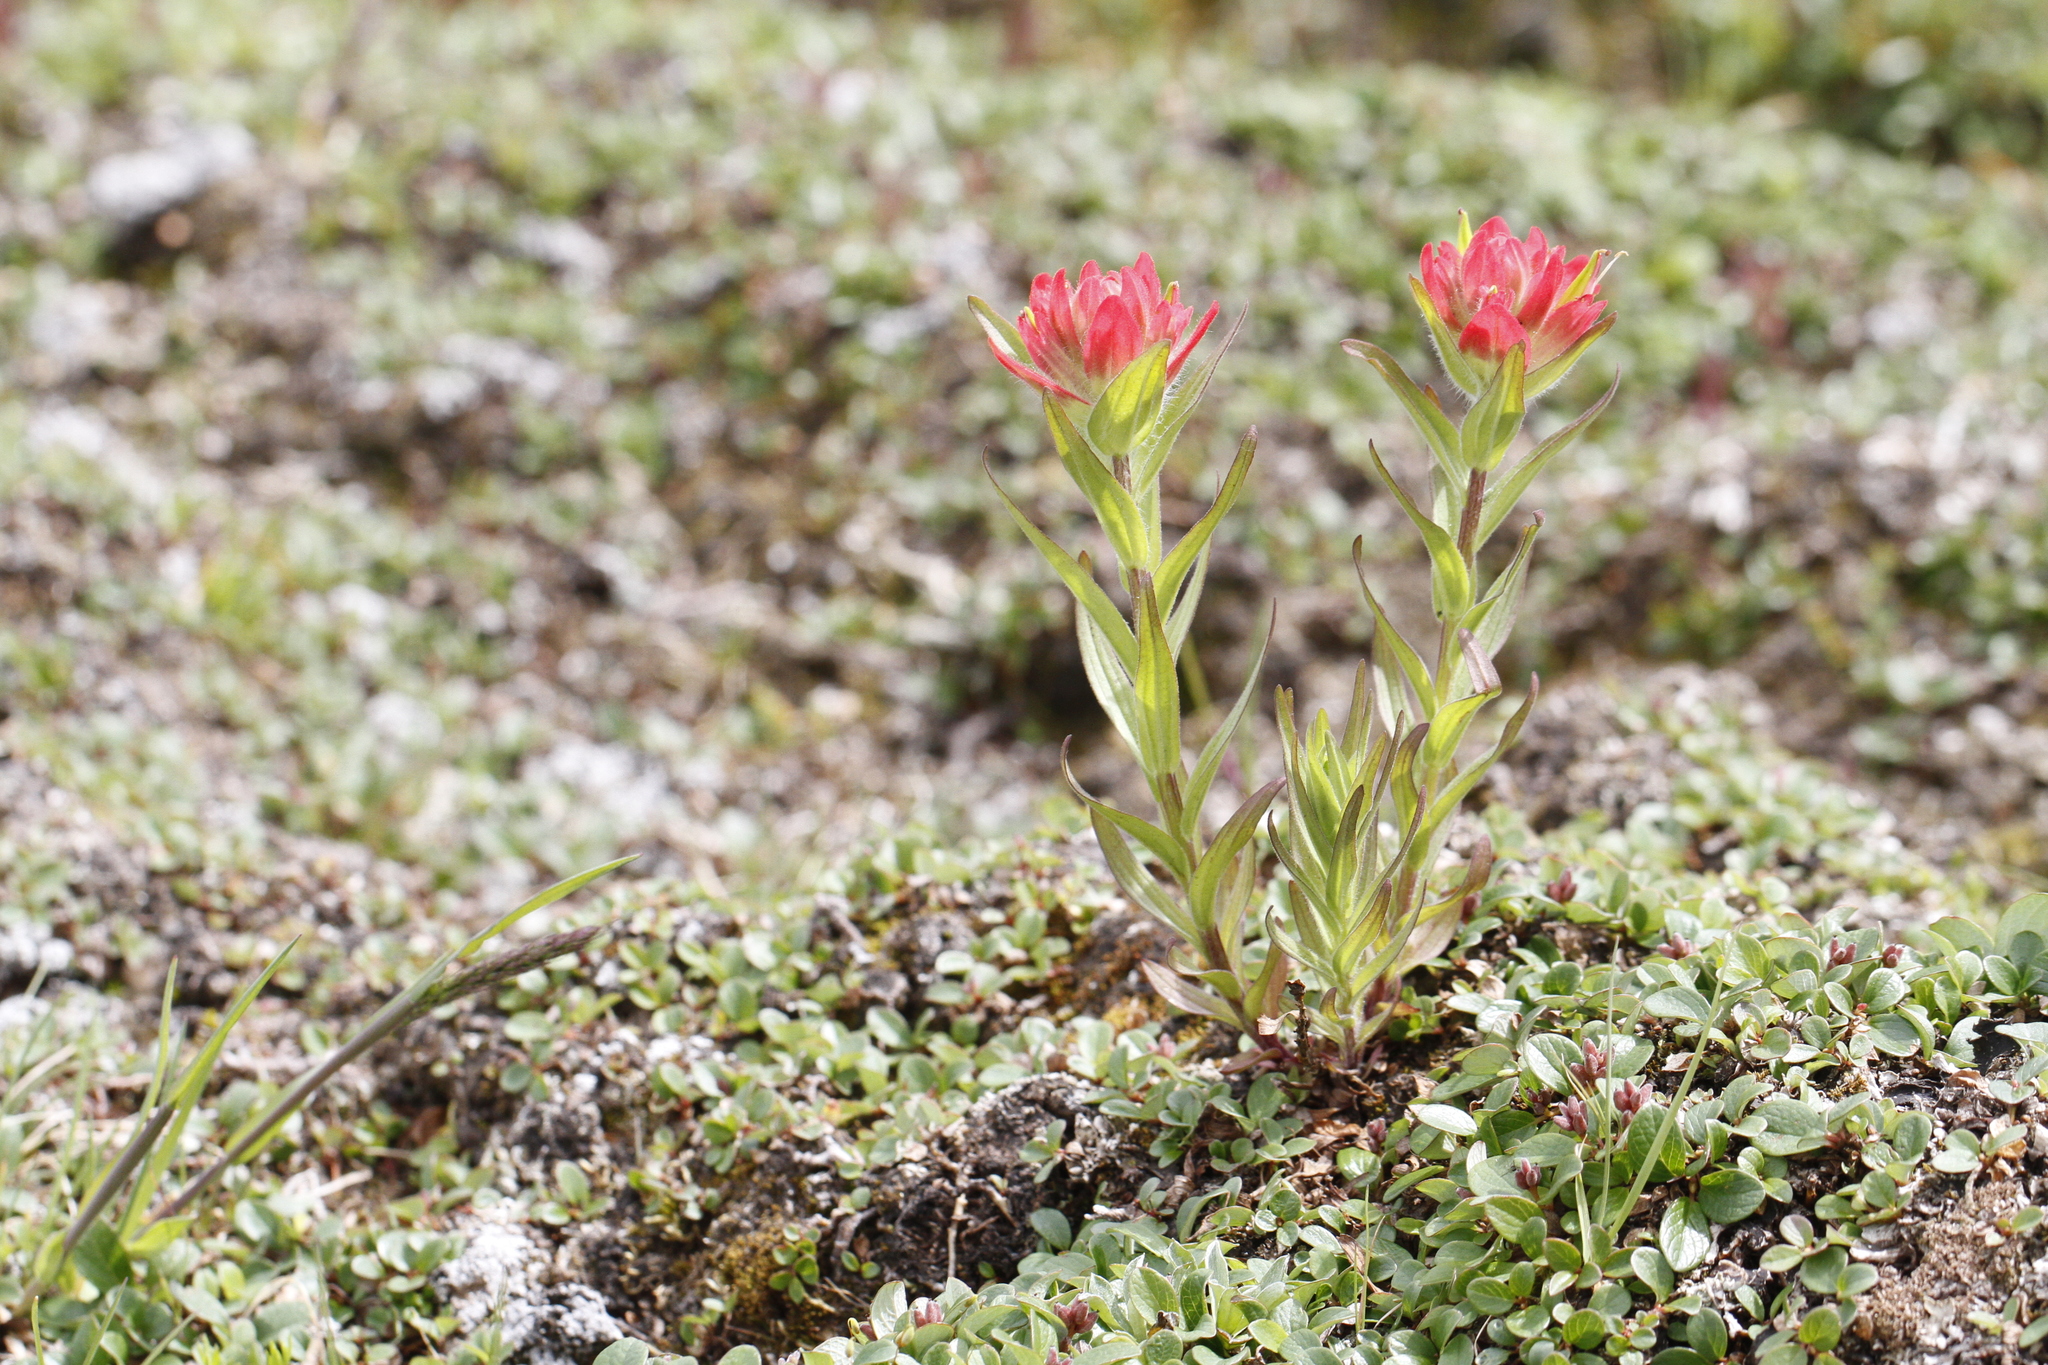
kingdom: Plantae
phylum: Tracheophyta
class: Magnoliopsida
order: Lamiales
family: Orobanchaceae
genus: Castilleja
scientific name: Castilleja miniata
